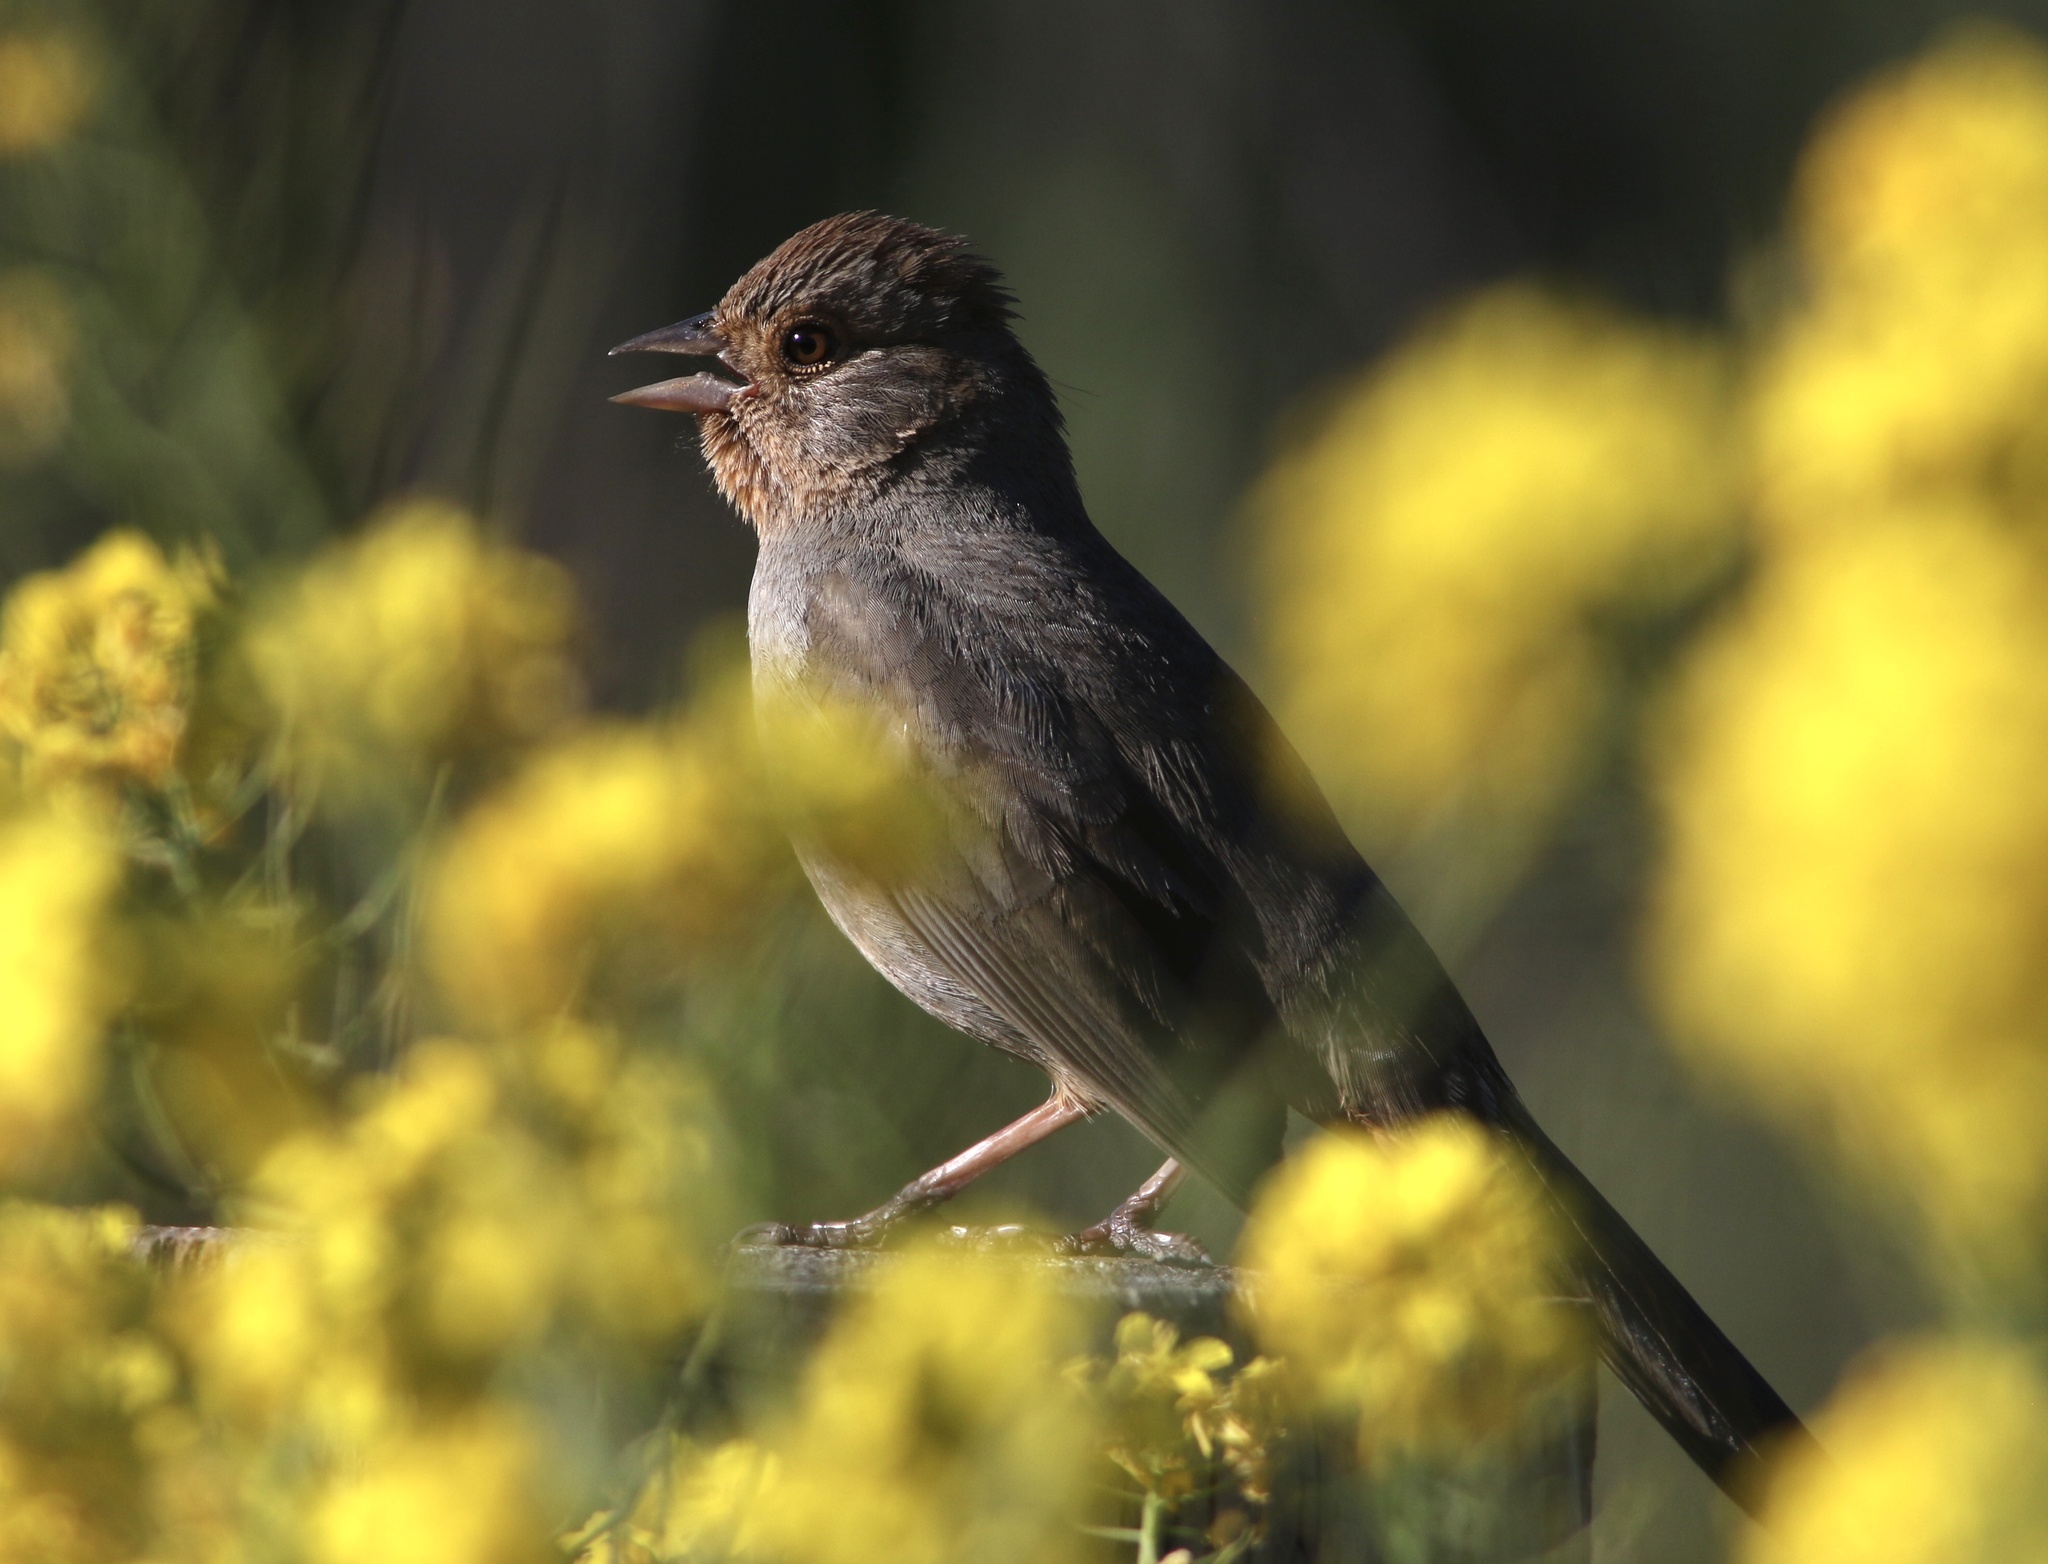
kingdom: Animalia
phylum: Chordata
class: Aves
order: Passeriformes
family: Passerellidae
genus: Melozone
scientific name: Melozone crissalis
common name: California towhee
